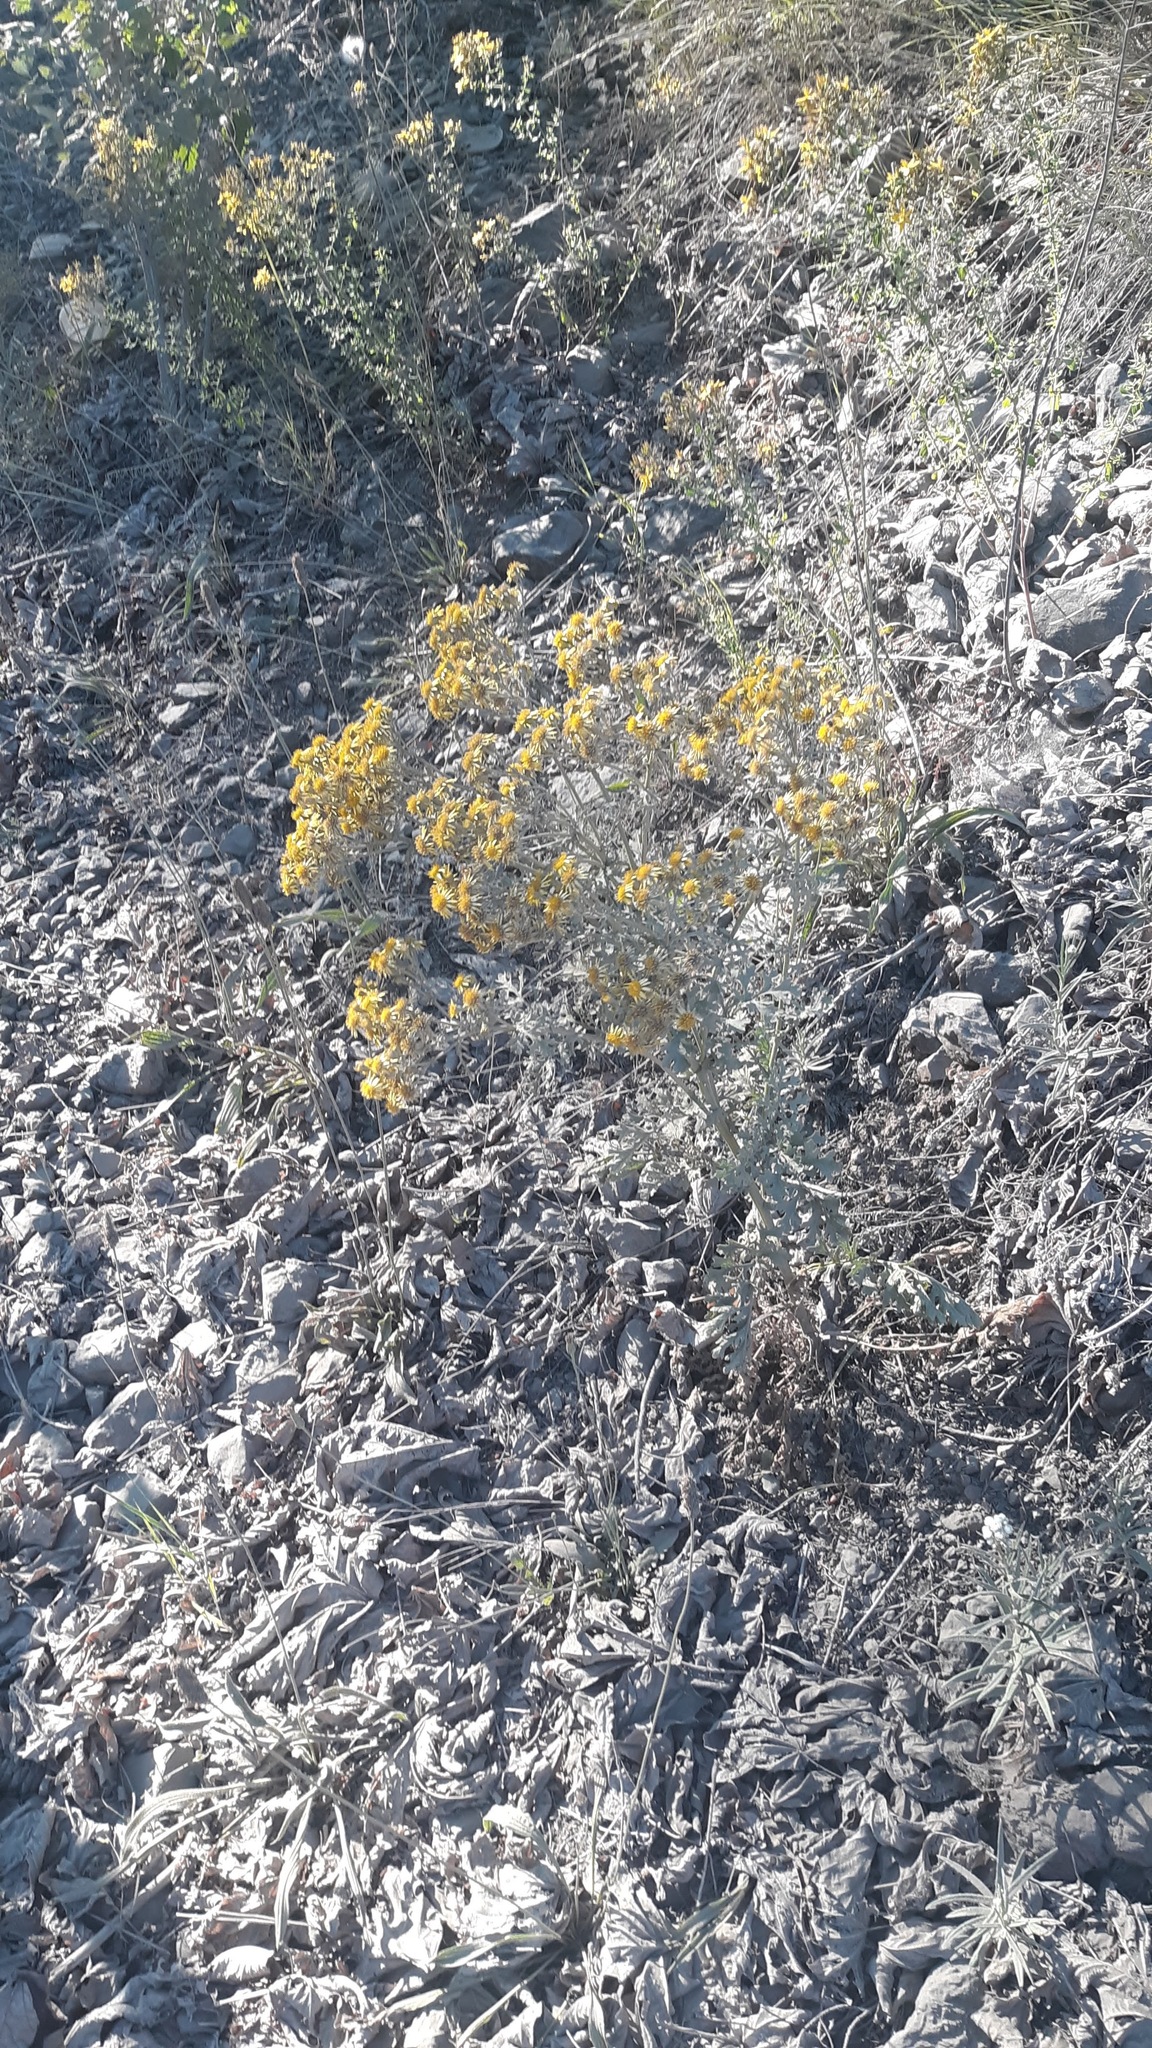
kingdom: Plantae
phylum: Tracheophyta
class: Magnoliopsida
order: Asterales
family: Asteraceae
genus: Jacobaea
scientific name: Jacobaea vulgaris
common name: Stinking willie
